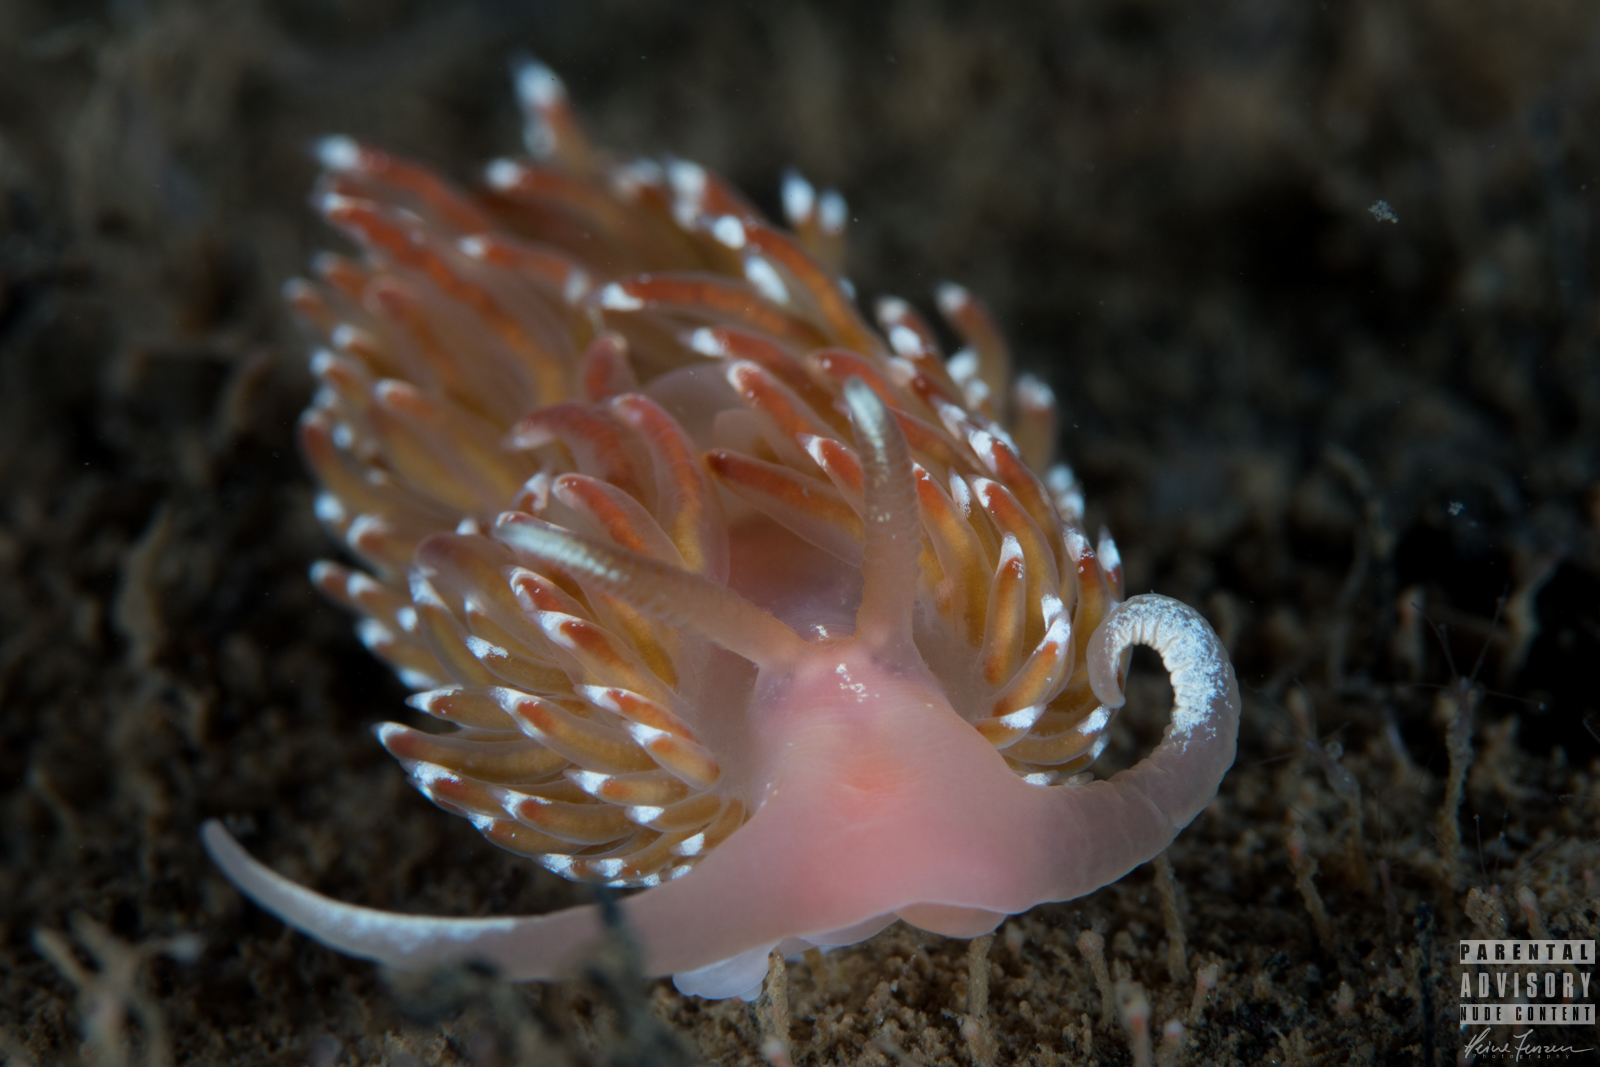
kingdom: Animalia
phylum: Mollusca
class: Gastropoda
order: Nudibranchia
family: Facelinidae
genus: Facelina
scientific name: Facelina bostoniensis
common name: Boston facelina
